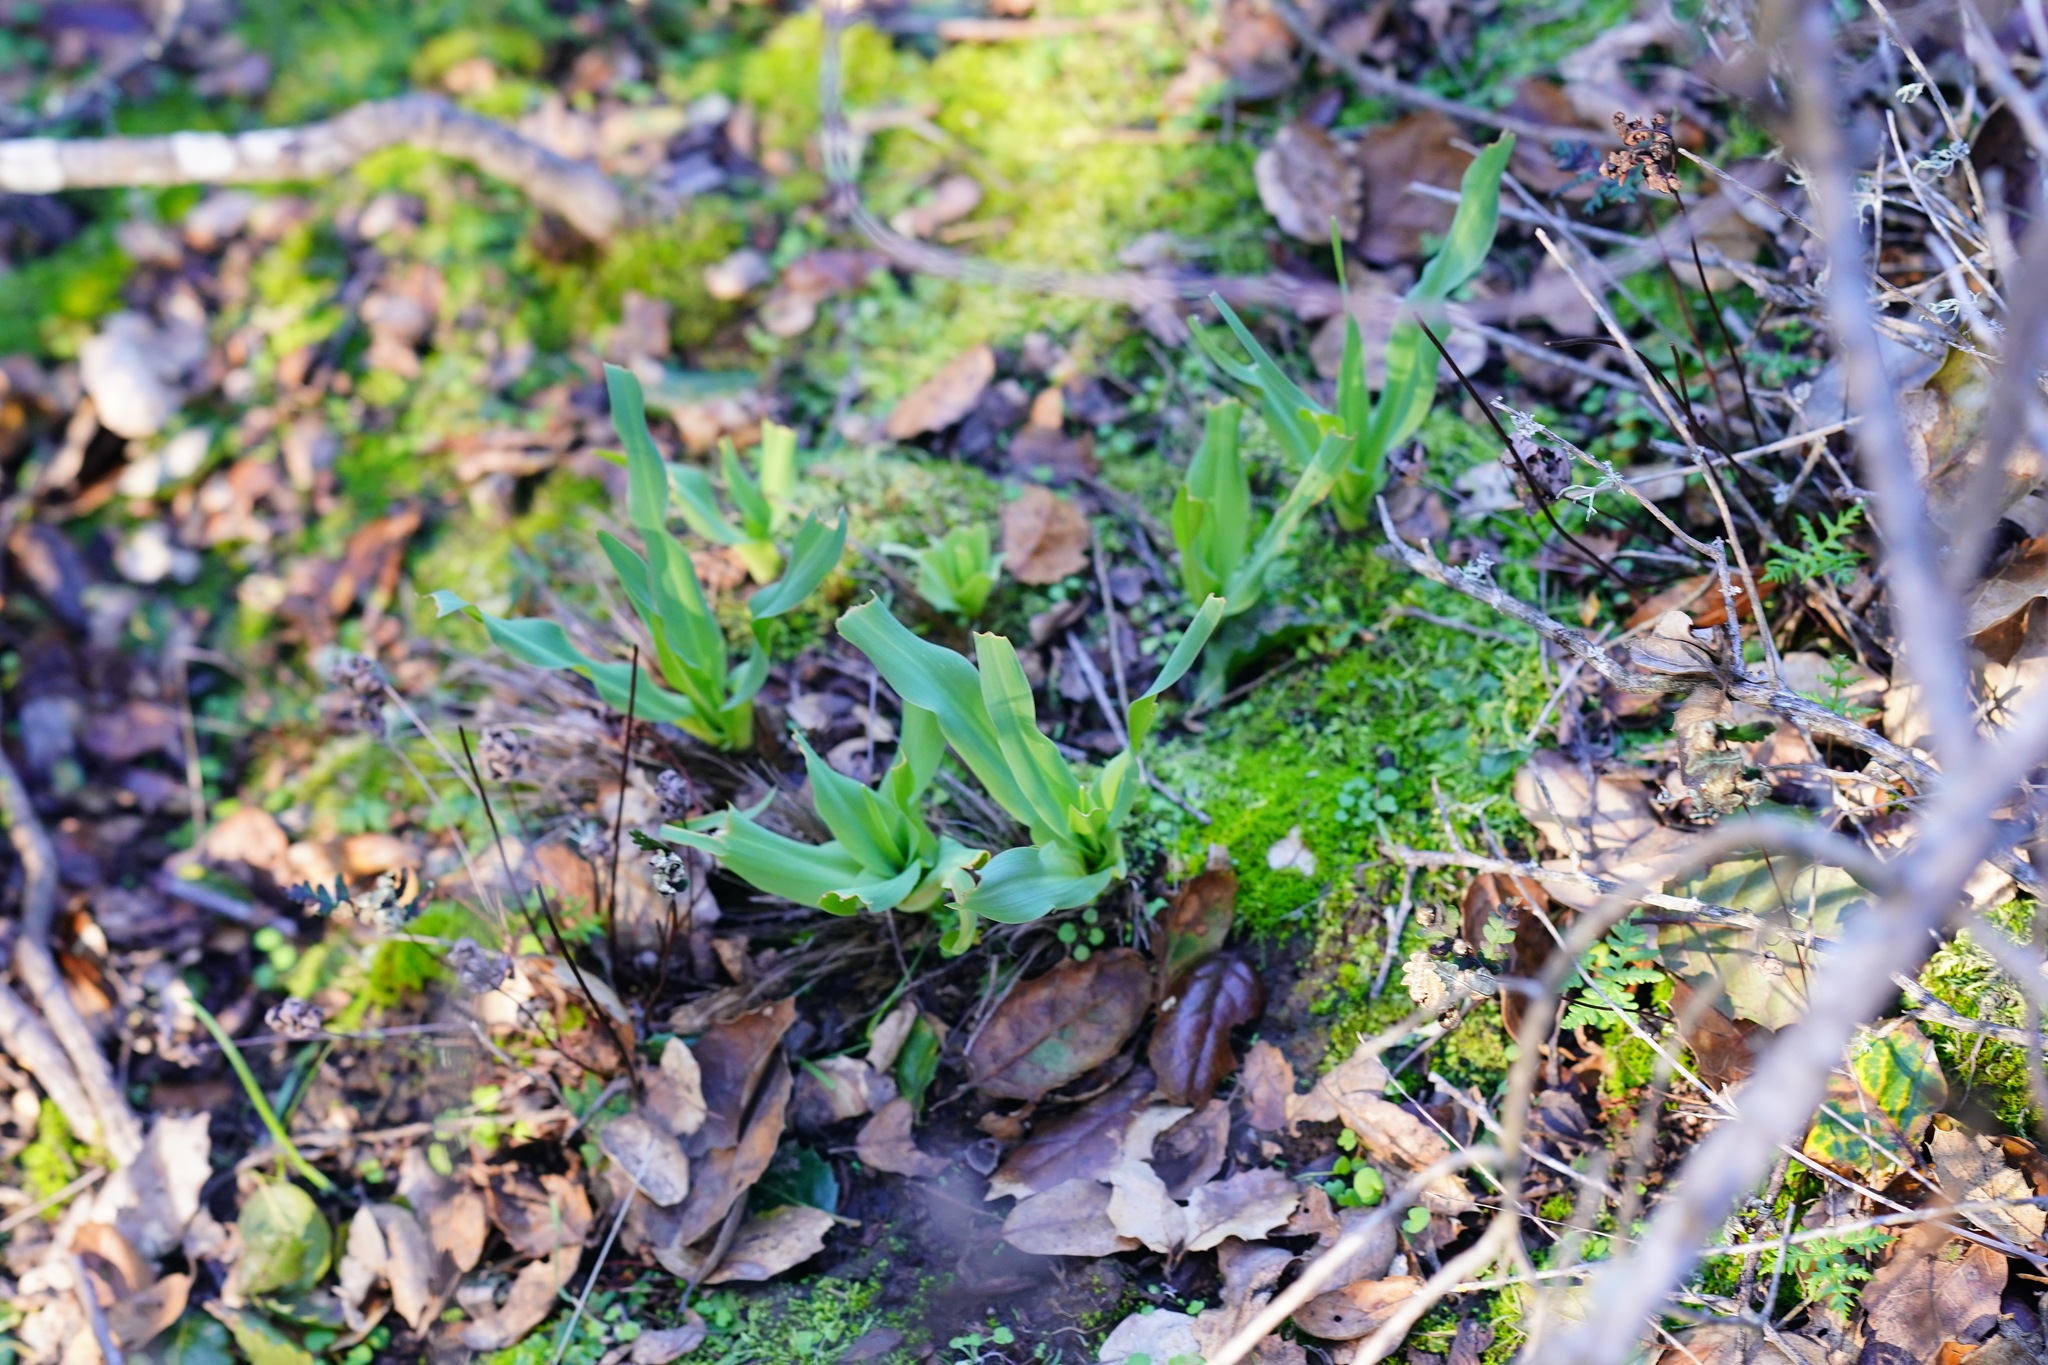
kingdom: Plantae
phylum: Tracheophyta
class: Liliopsida
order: Asparagales
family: Asparagaceae
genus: Chlorogalum
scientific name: Chlorogalum pomeridianum
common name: Amole
